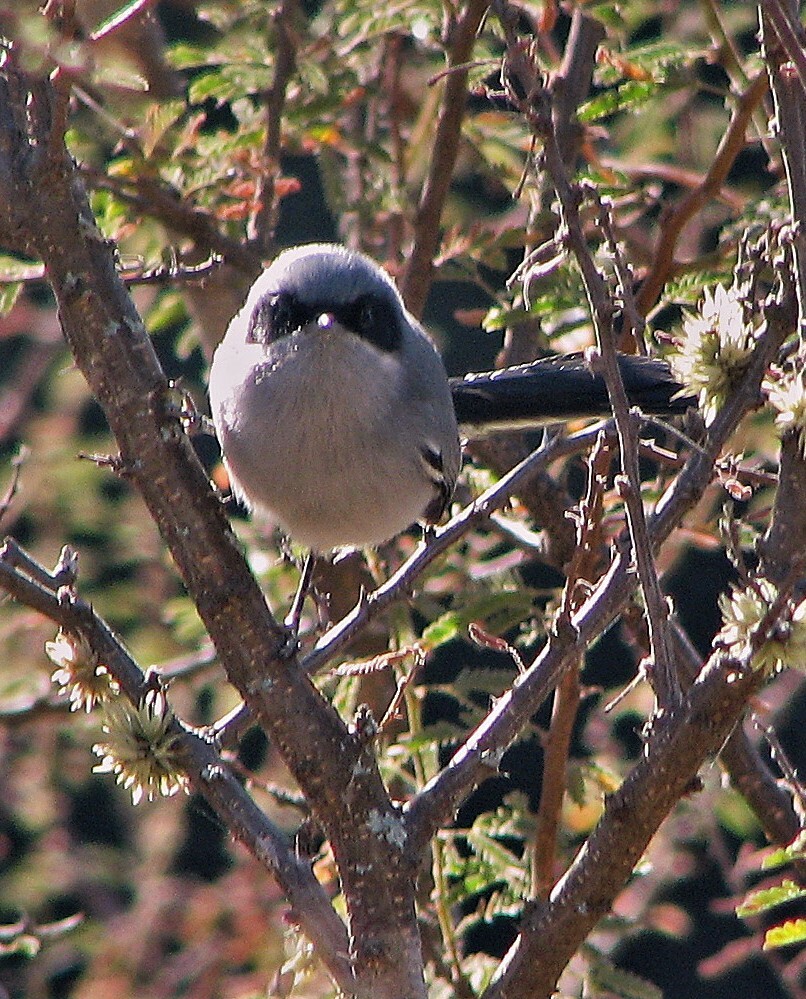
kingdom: Animalia
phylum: Chordata
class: Aves
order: Passeriformes
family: Polioptilidae
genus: Polioptila
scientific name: Polioptila dumicola
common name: Masked gnatcatcher
